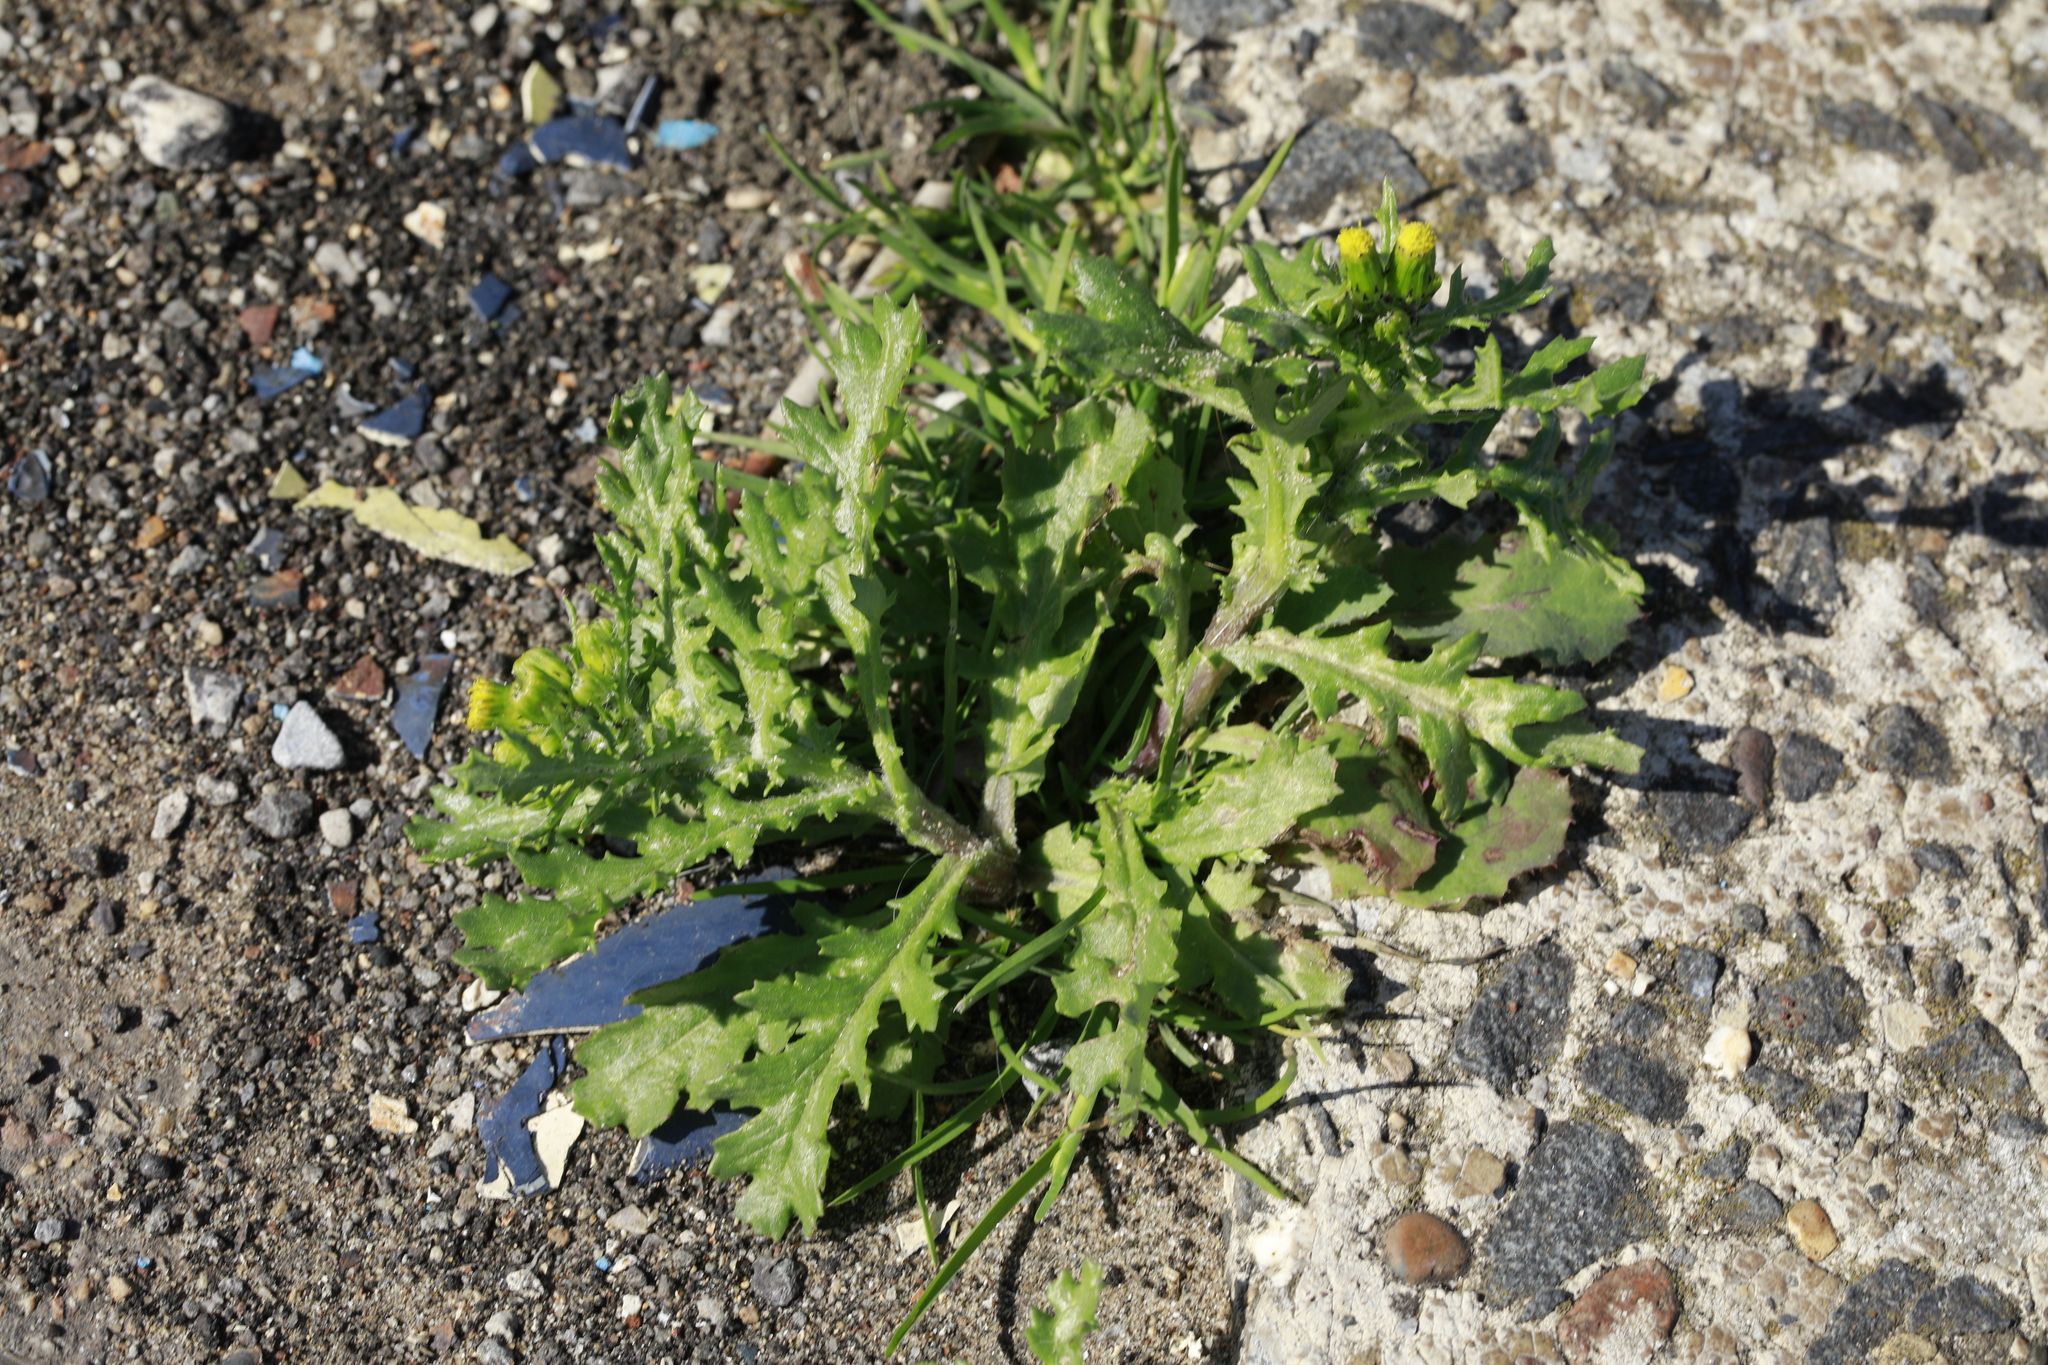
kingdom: Plantae
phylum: Tracheophyta
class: Magnoliopsida
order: Asterales
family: Asteraceae
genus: Senecio
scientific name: Senecio vulgaris
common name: Old-man-in-the-spring
